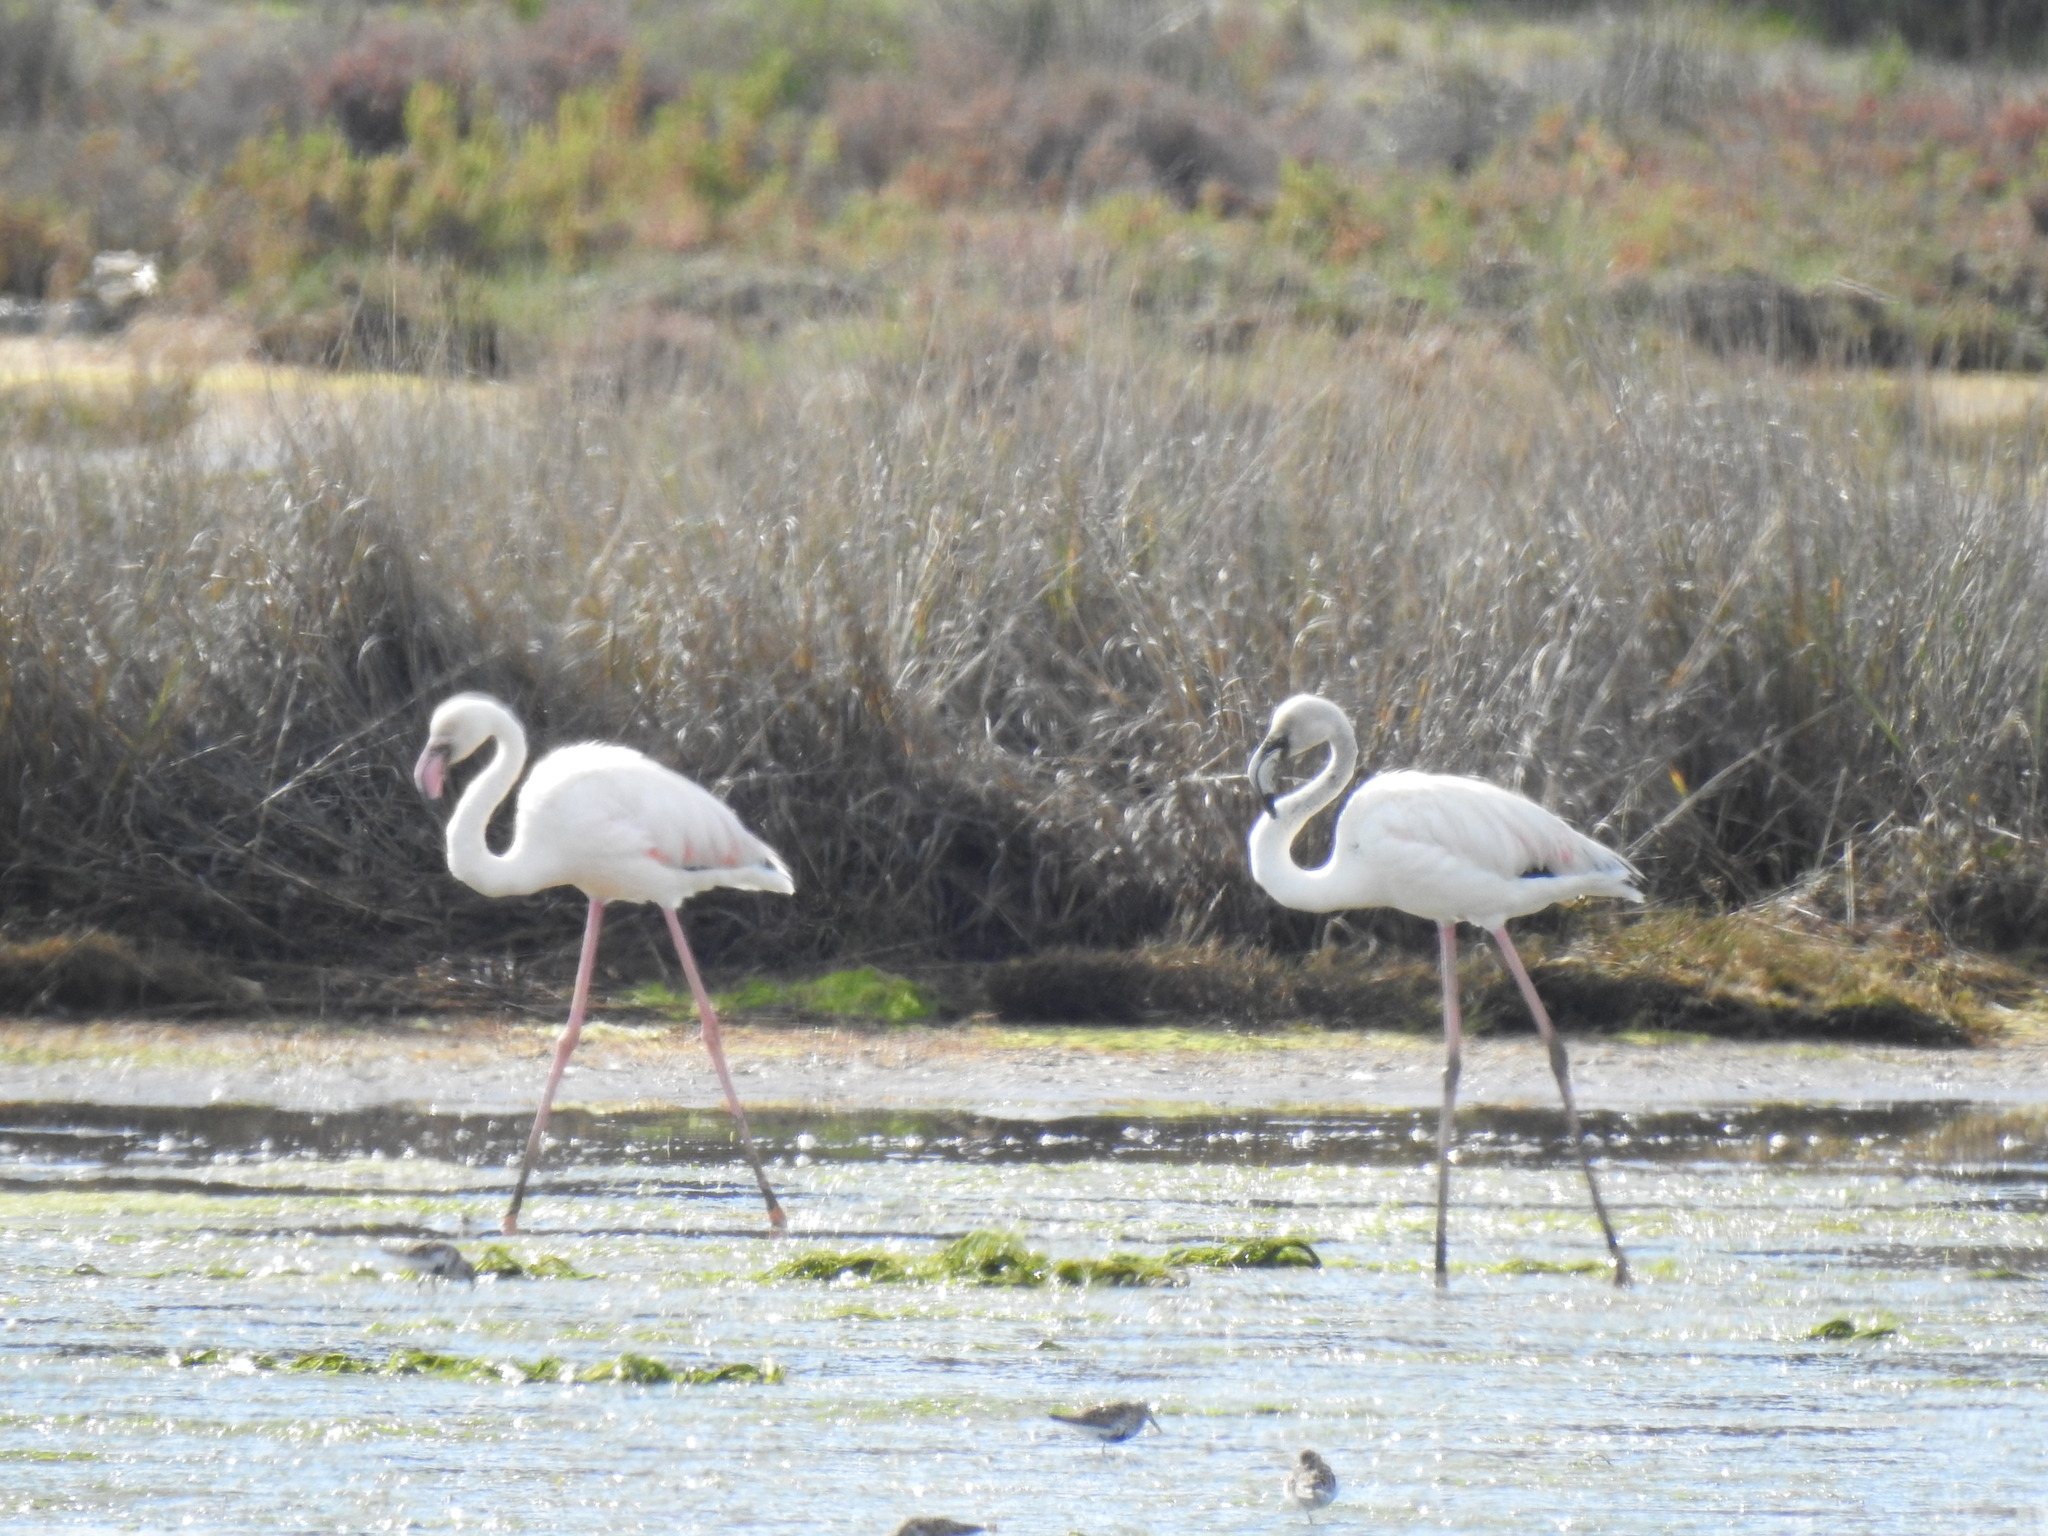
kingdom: Animalia
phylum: Chordata
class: Aves
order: Phoenicopteriformes
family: Phoenicopteridae
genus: Phoenicopterus
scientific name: Phoenicopterus roseus
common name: Greater flamingo
